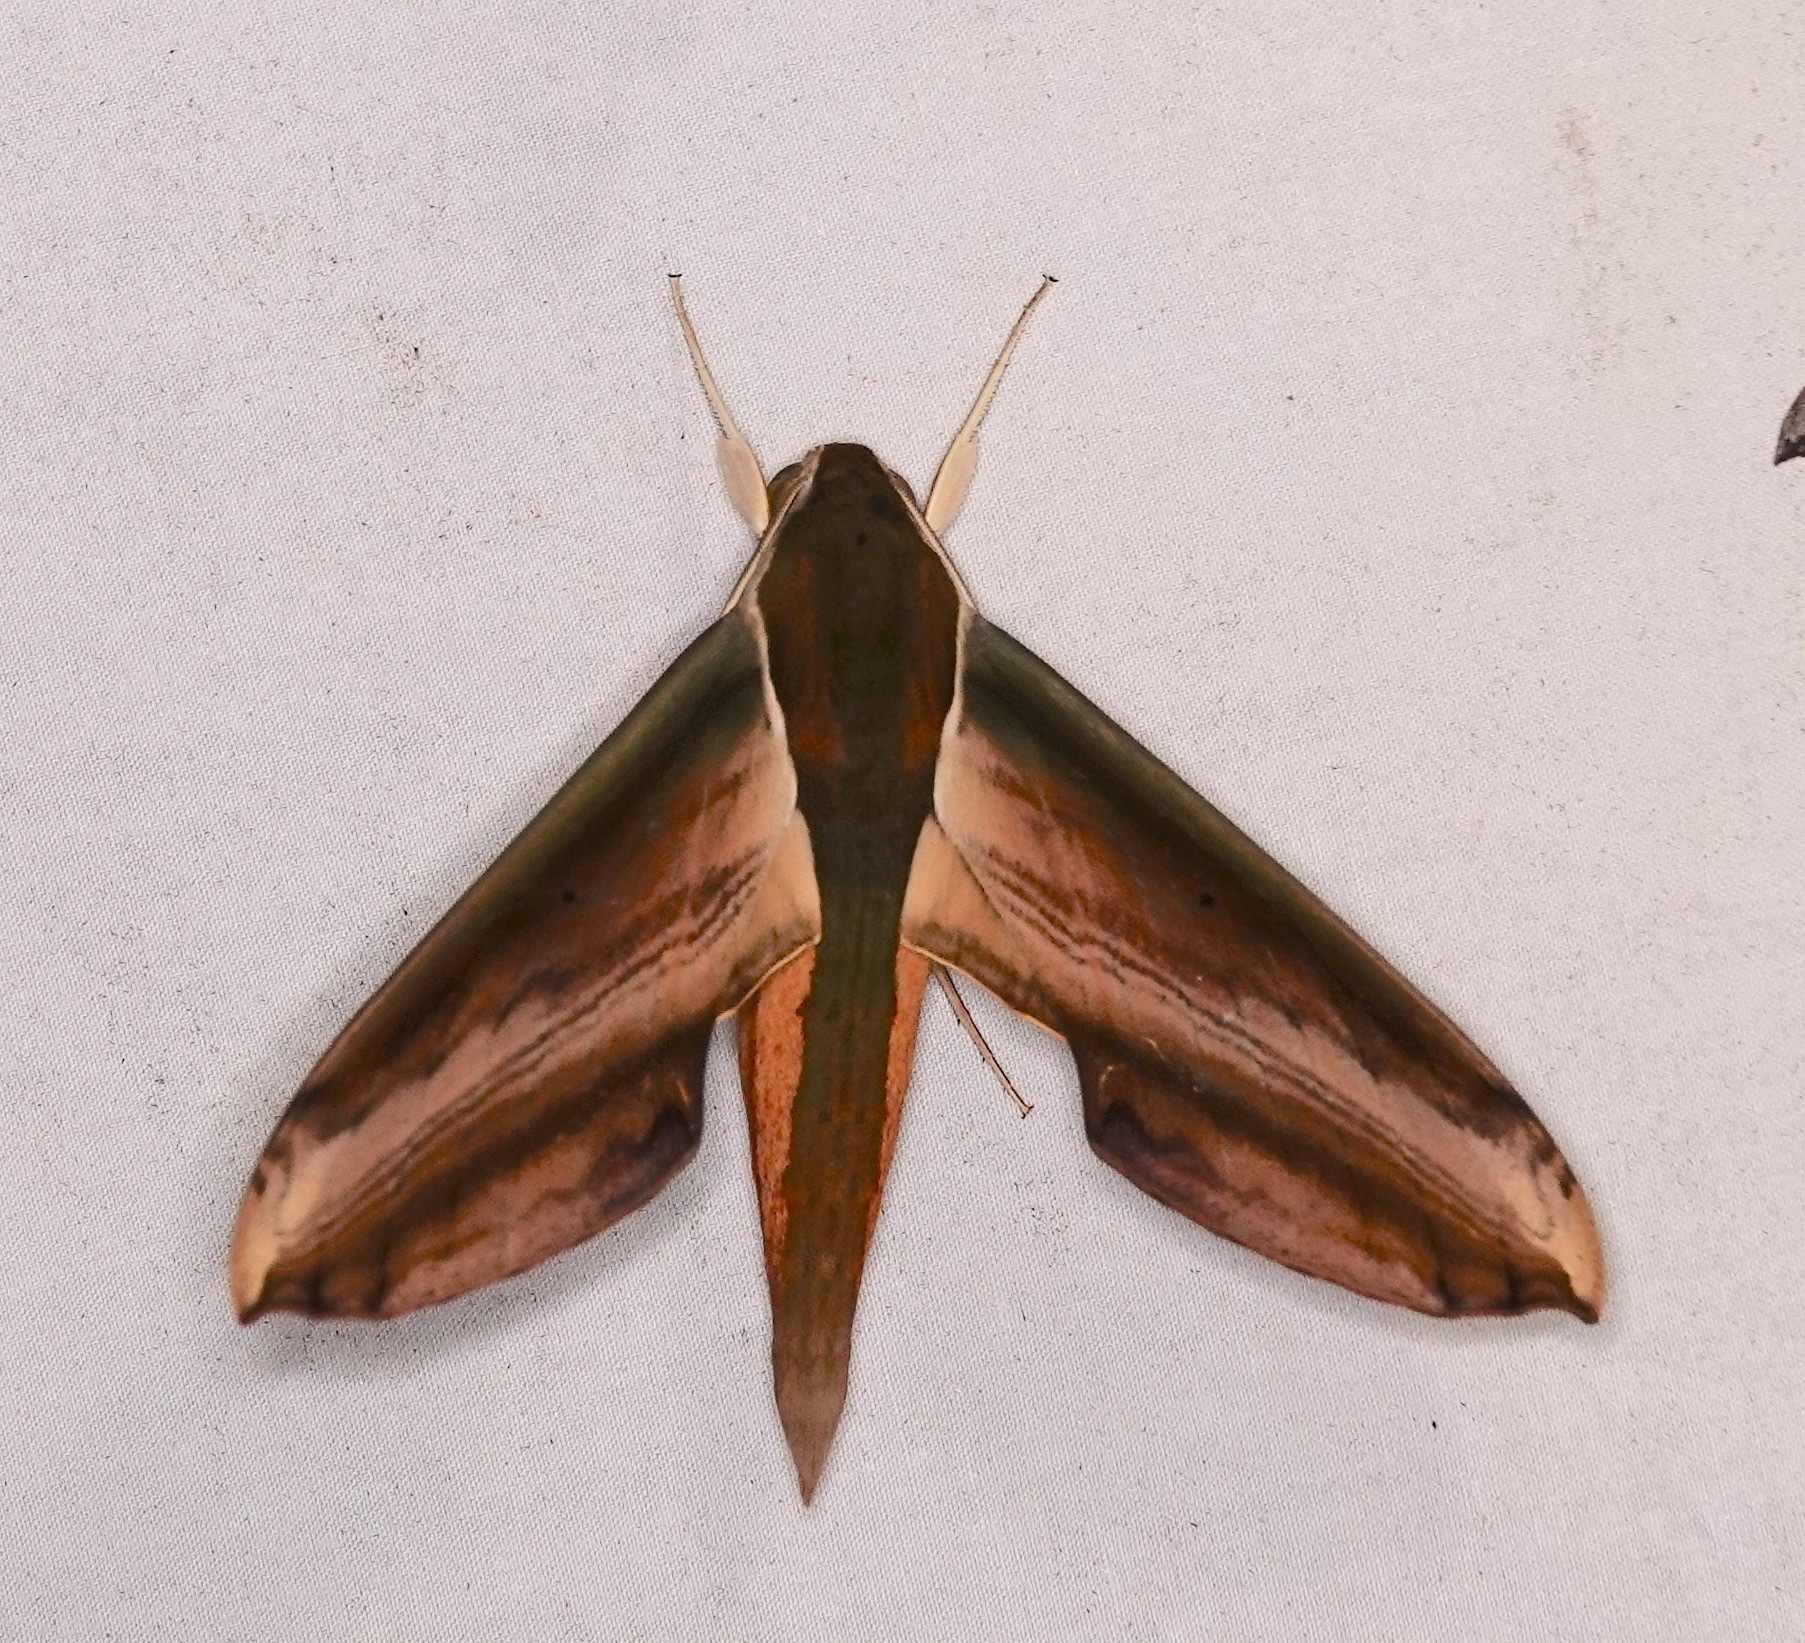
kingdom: Animalia
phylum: Arthropoda
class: Insecta
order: Lepidoptera
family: Sphingidae
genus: Theretra
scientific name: Theretra nessus
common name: Yam hawk moth
